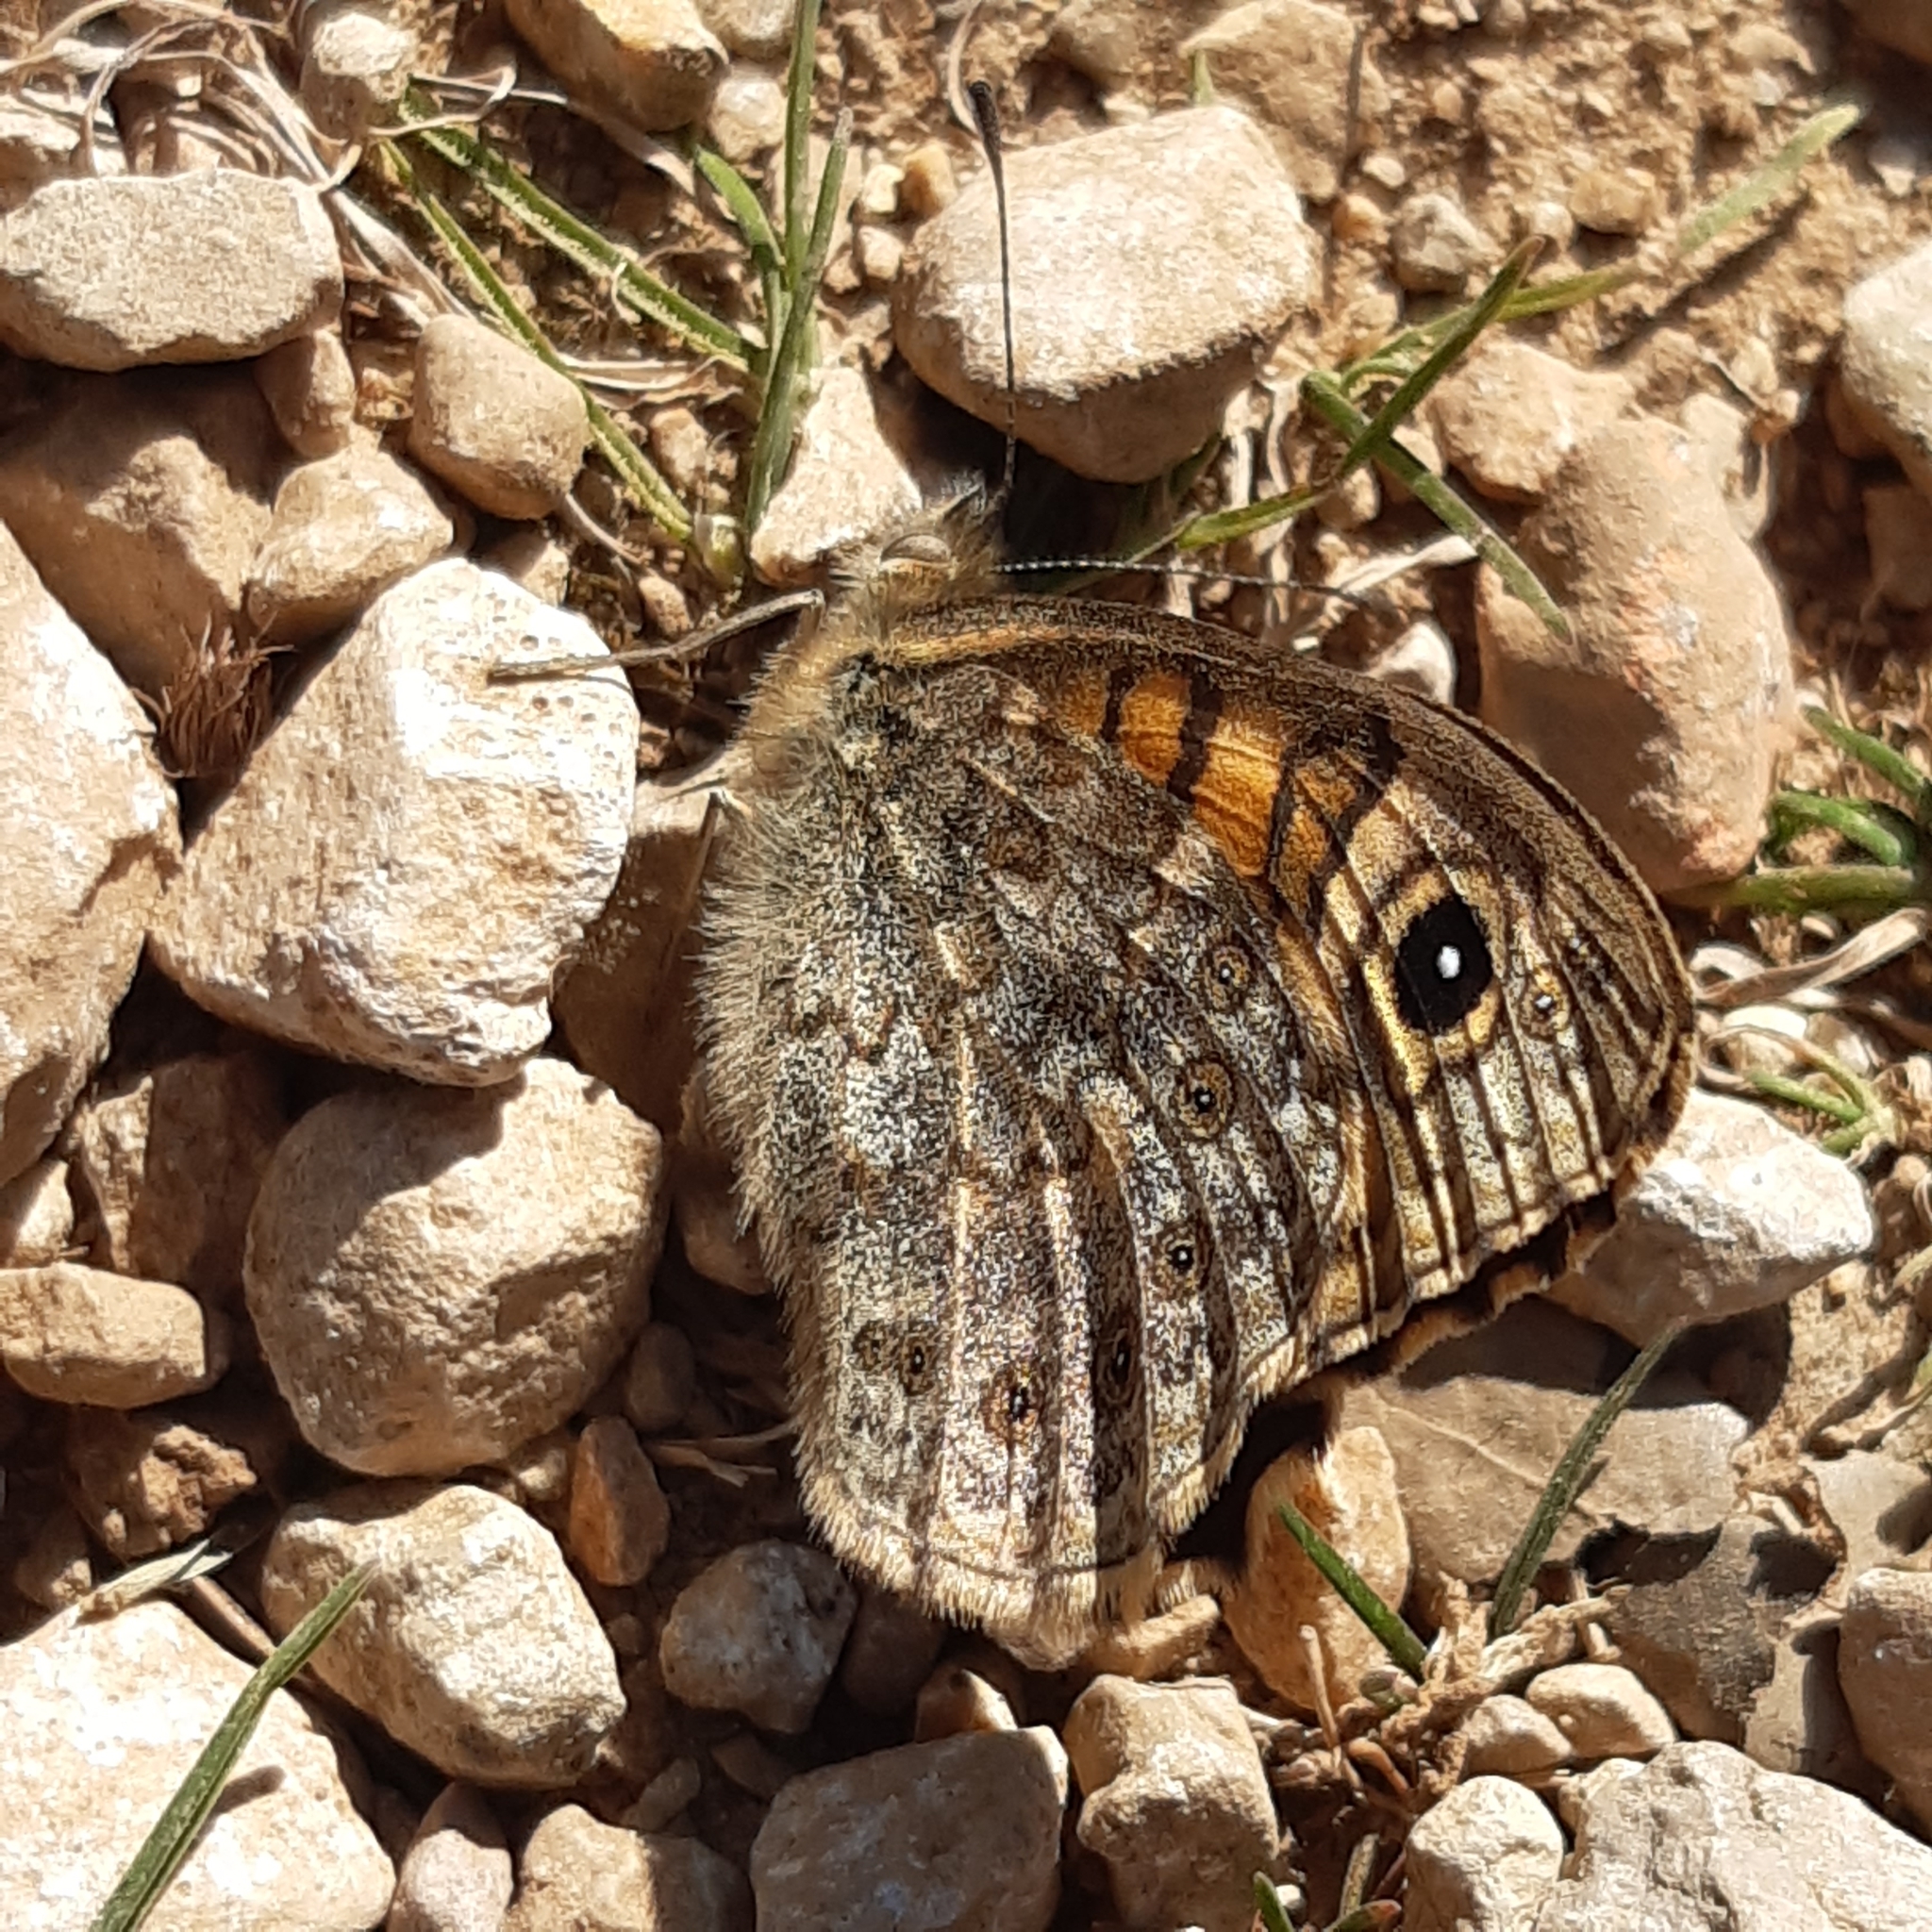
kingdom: Animalia
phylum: Arthropoda
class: Insecta
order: Lepidoptera
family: Nymphalidae
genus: Pararge
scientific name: Pararge Lasiommata megera
